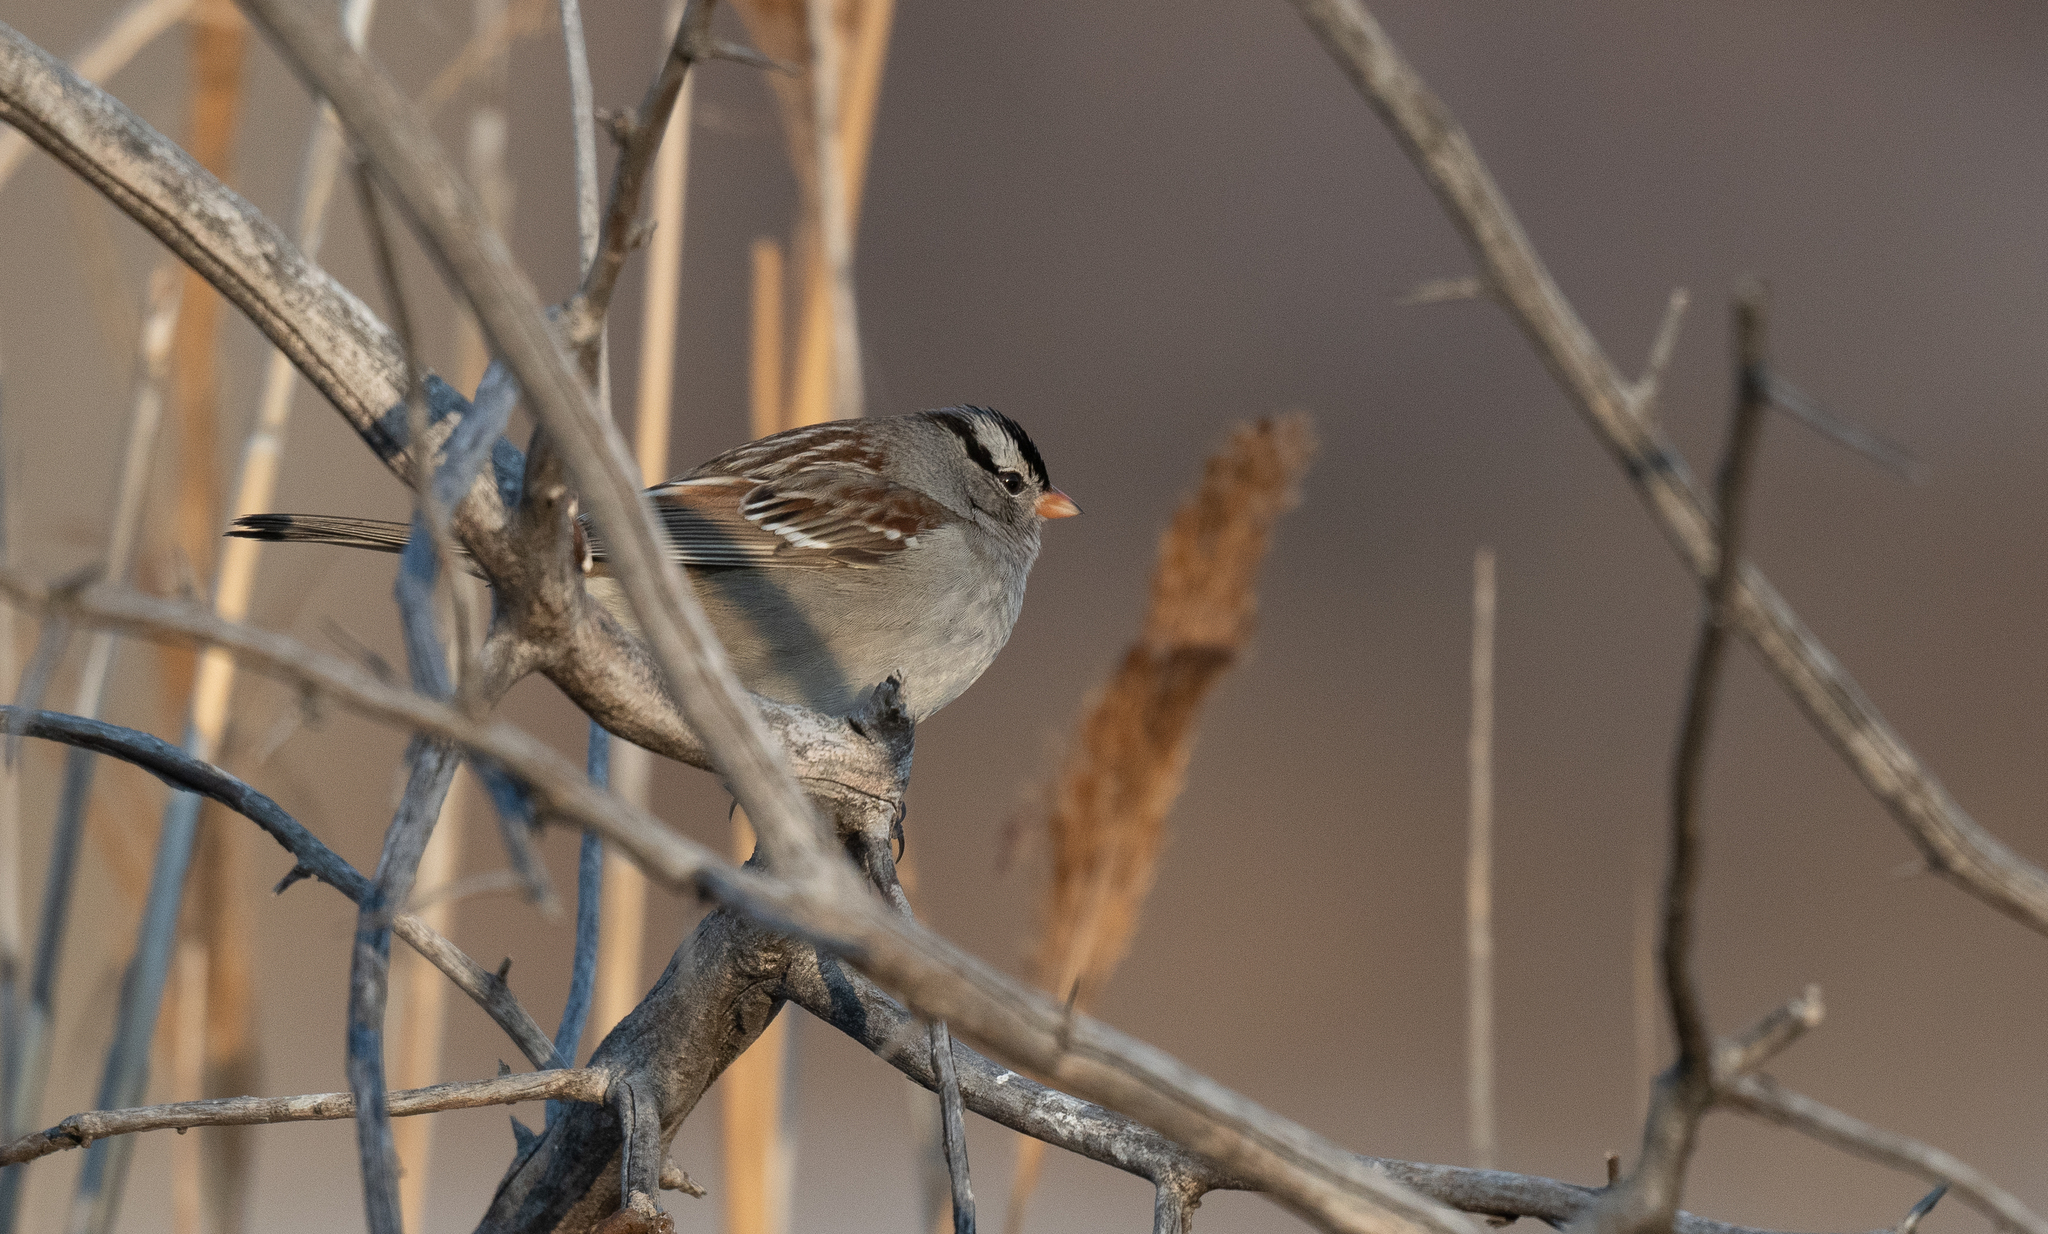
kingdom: Animalia
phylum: Chordata
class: Aves
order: Passeriformes
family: Passerellidae
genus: Zonotrichia
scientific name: Zonotrichia leucophrys
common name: White-crowned sparrow
